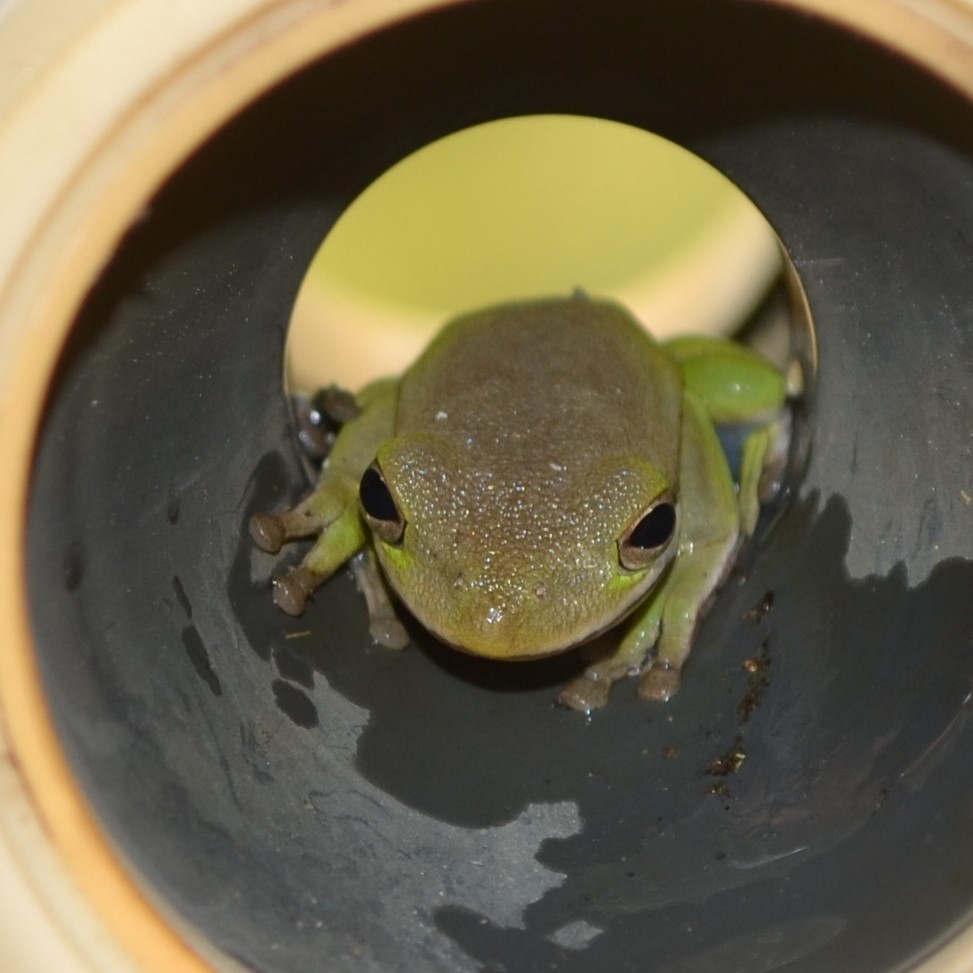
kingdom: Animalia
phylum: Chordata
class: Amphibia
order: Anura
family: Hylidae
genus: Dryophytes
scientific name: Dryophytes cinereus
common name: Green treefrog
